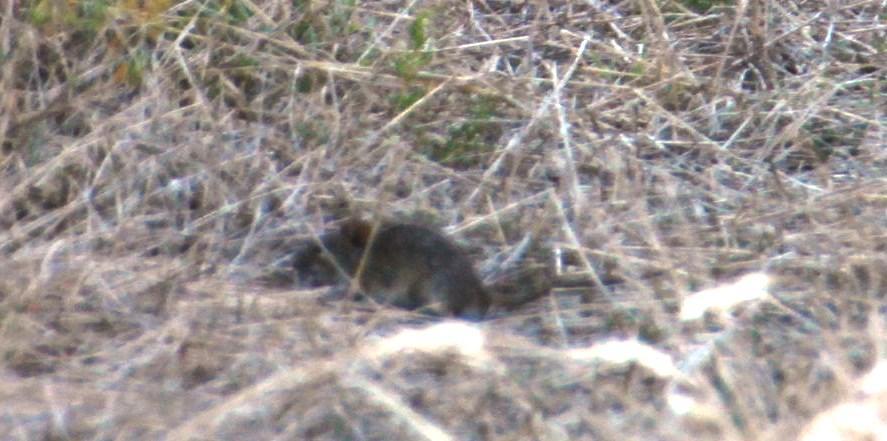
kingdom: Animalia
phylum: Chordata
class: Mammalia
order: Rodentia
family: Muridae
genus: Rhabdomys
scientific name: Rhabdomys pumilio
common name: Xeric four-striped grass rat
